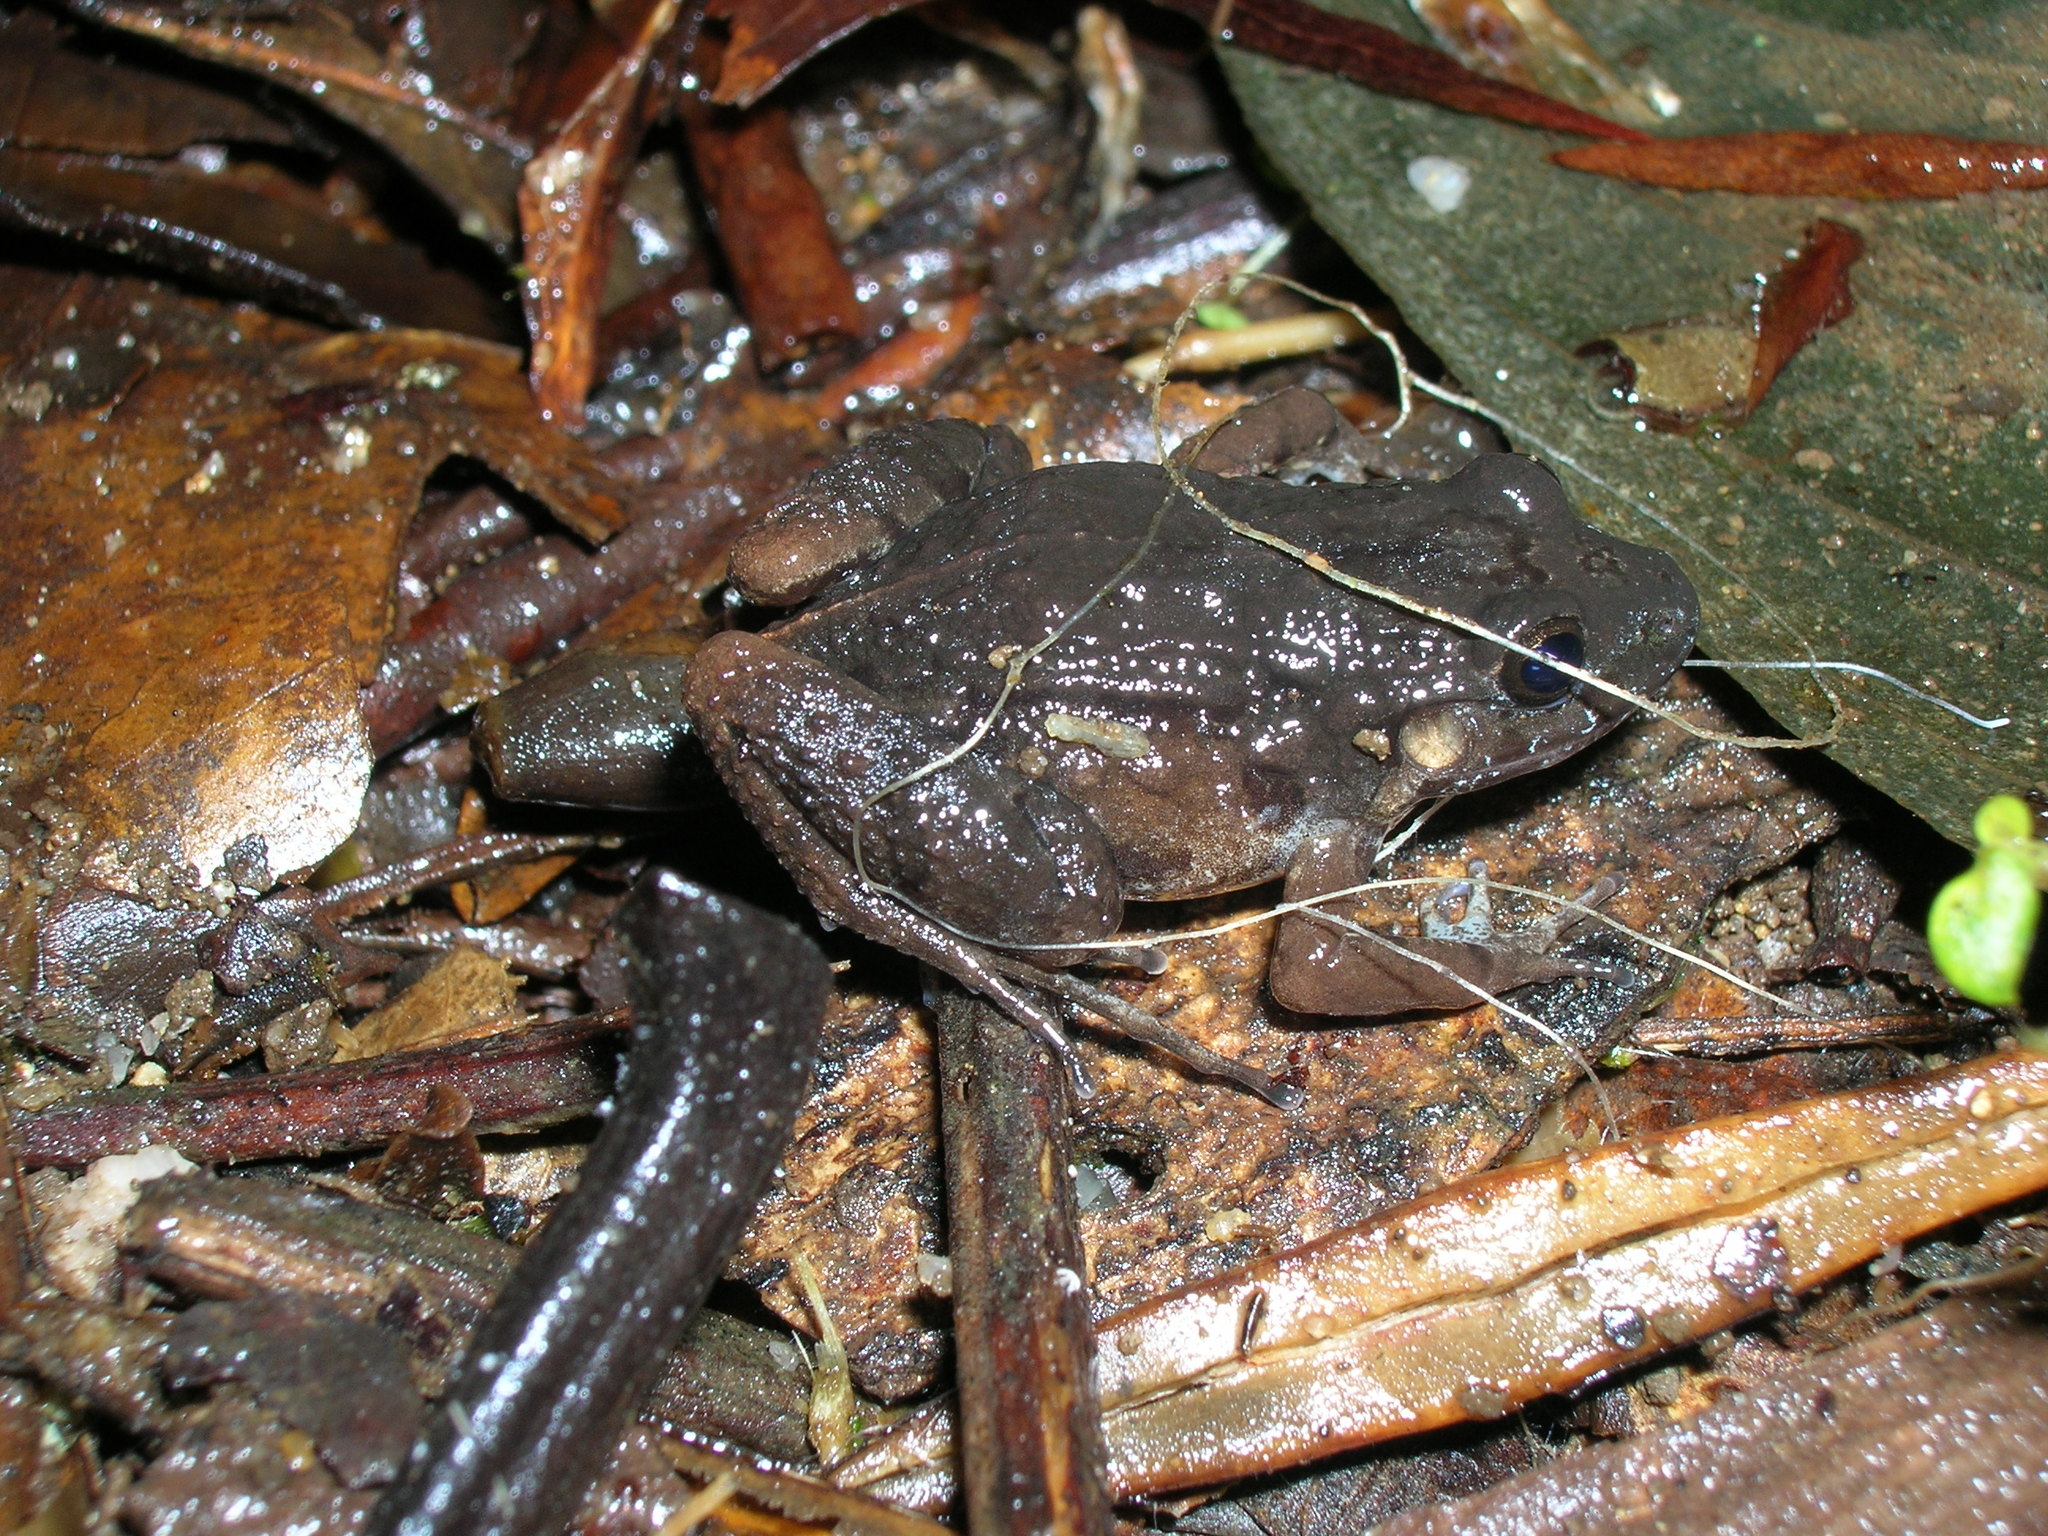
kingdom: Animalia
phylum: Chordata
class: Amphibia
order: Anura
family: Leptodactylidae
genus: Leptodactylus
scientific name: Leptodactylus wagneri
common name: Wagner's white-lipped frog
